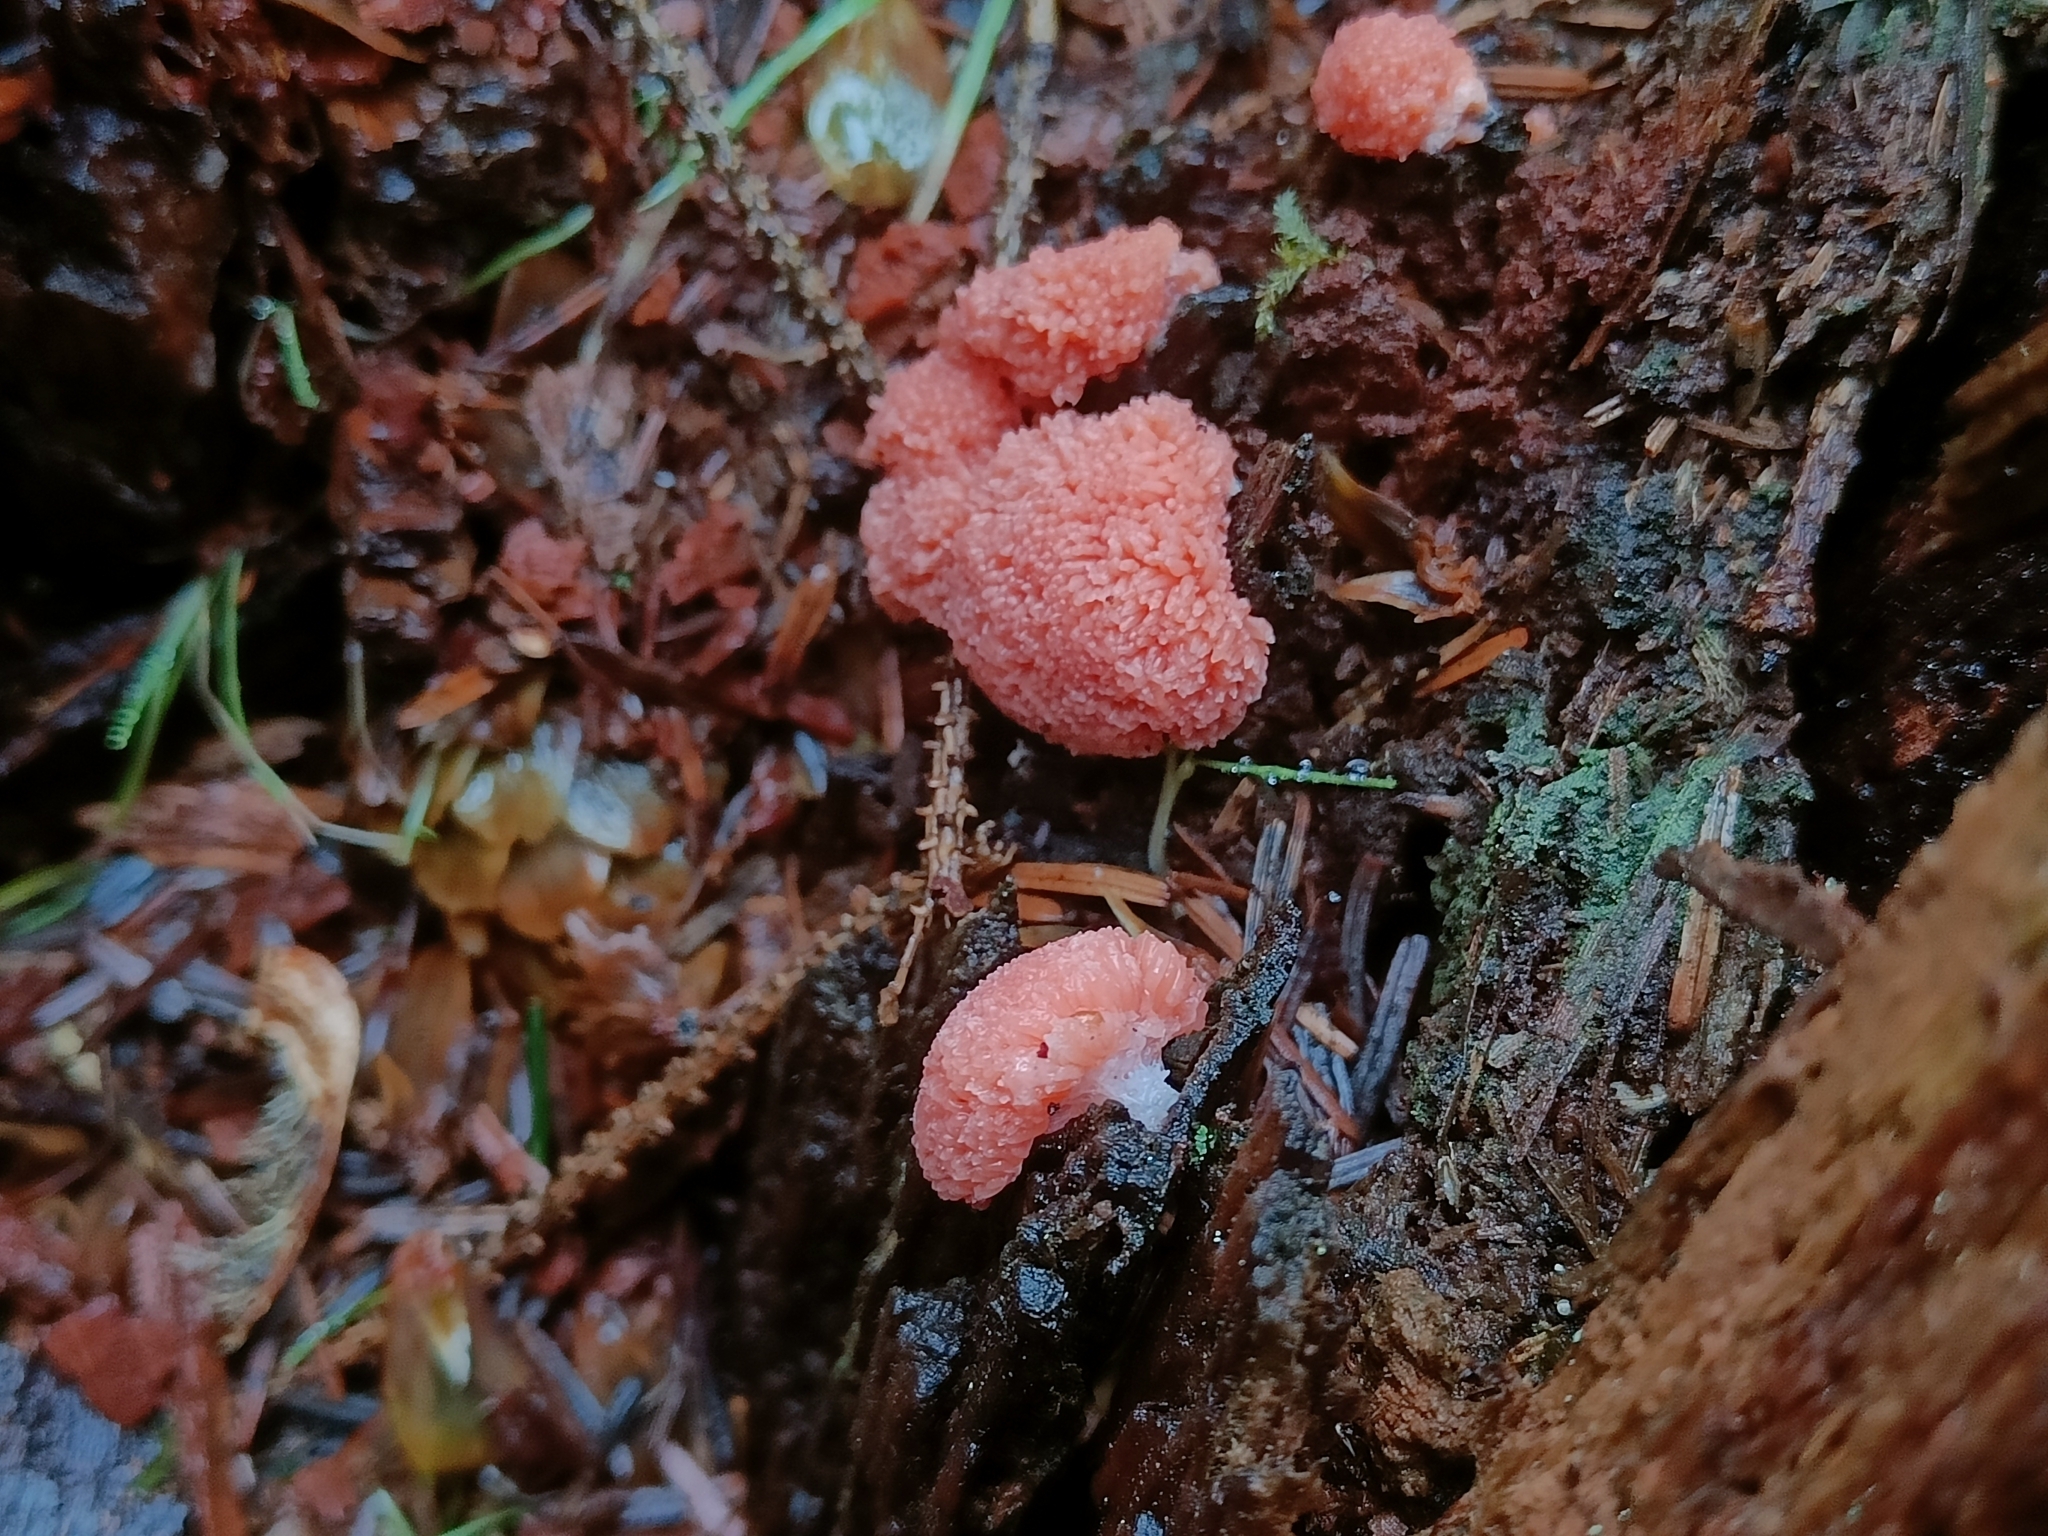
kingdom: Protozoa
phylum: Mycetozoa
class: Myxomycetes
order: Cribrariales
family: Tubiferaceae
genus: Tubifera
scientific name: Tubifera ferruginosa
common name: Red raspberry slime mold
